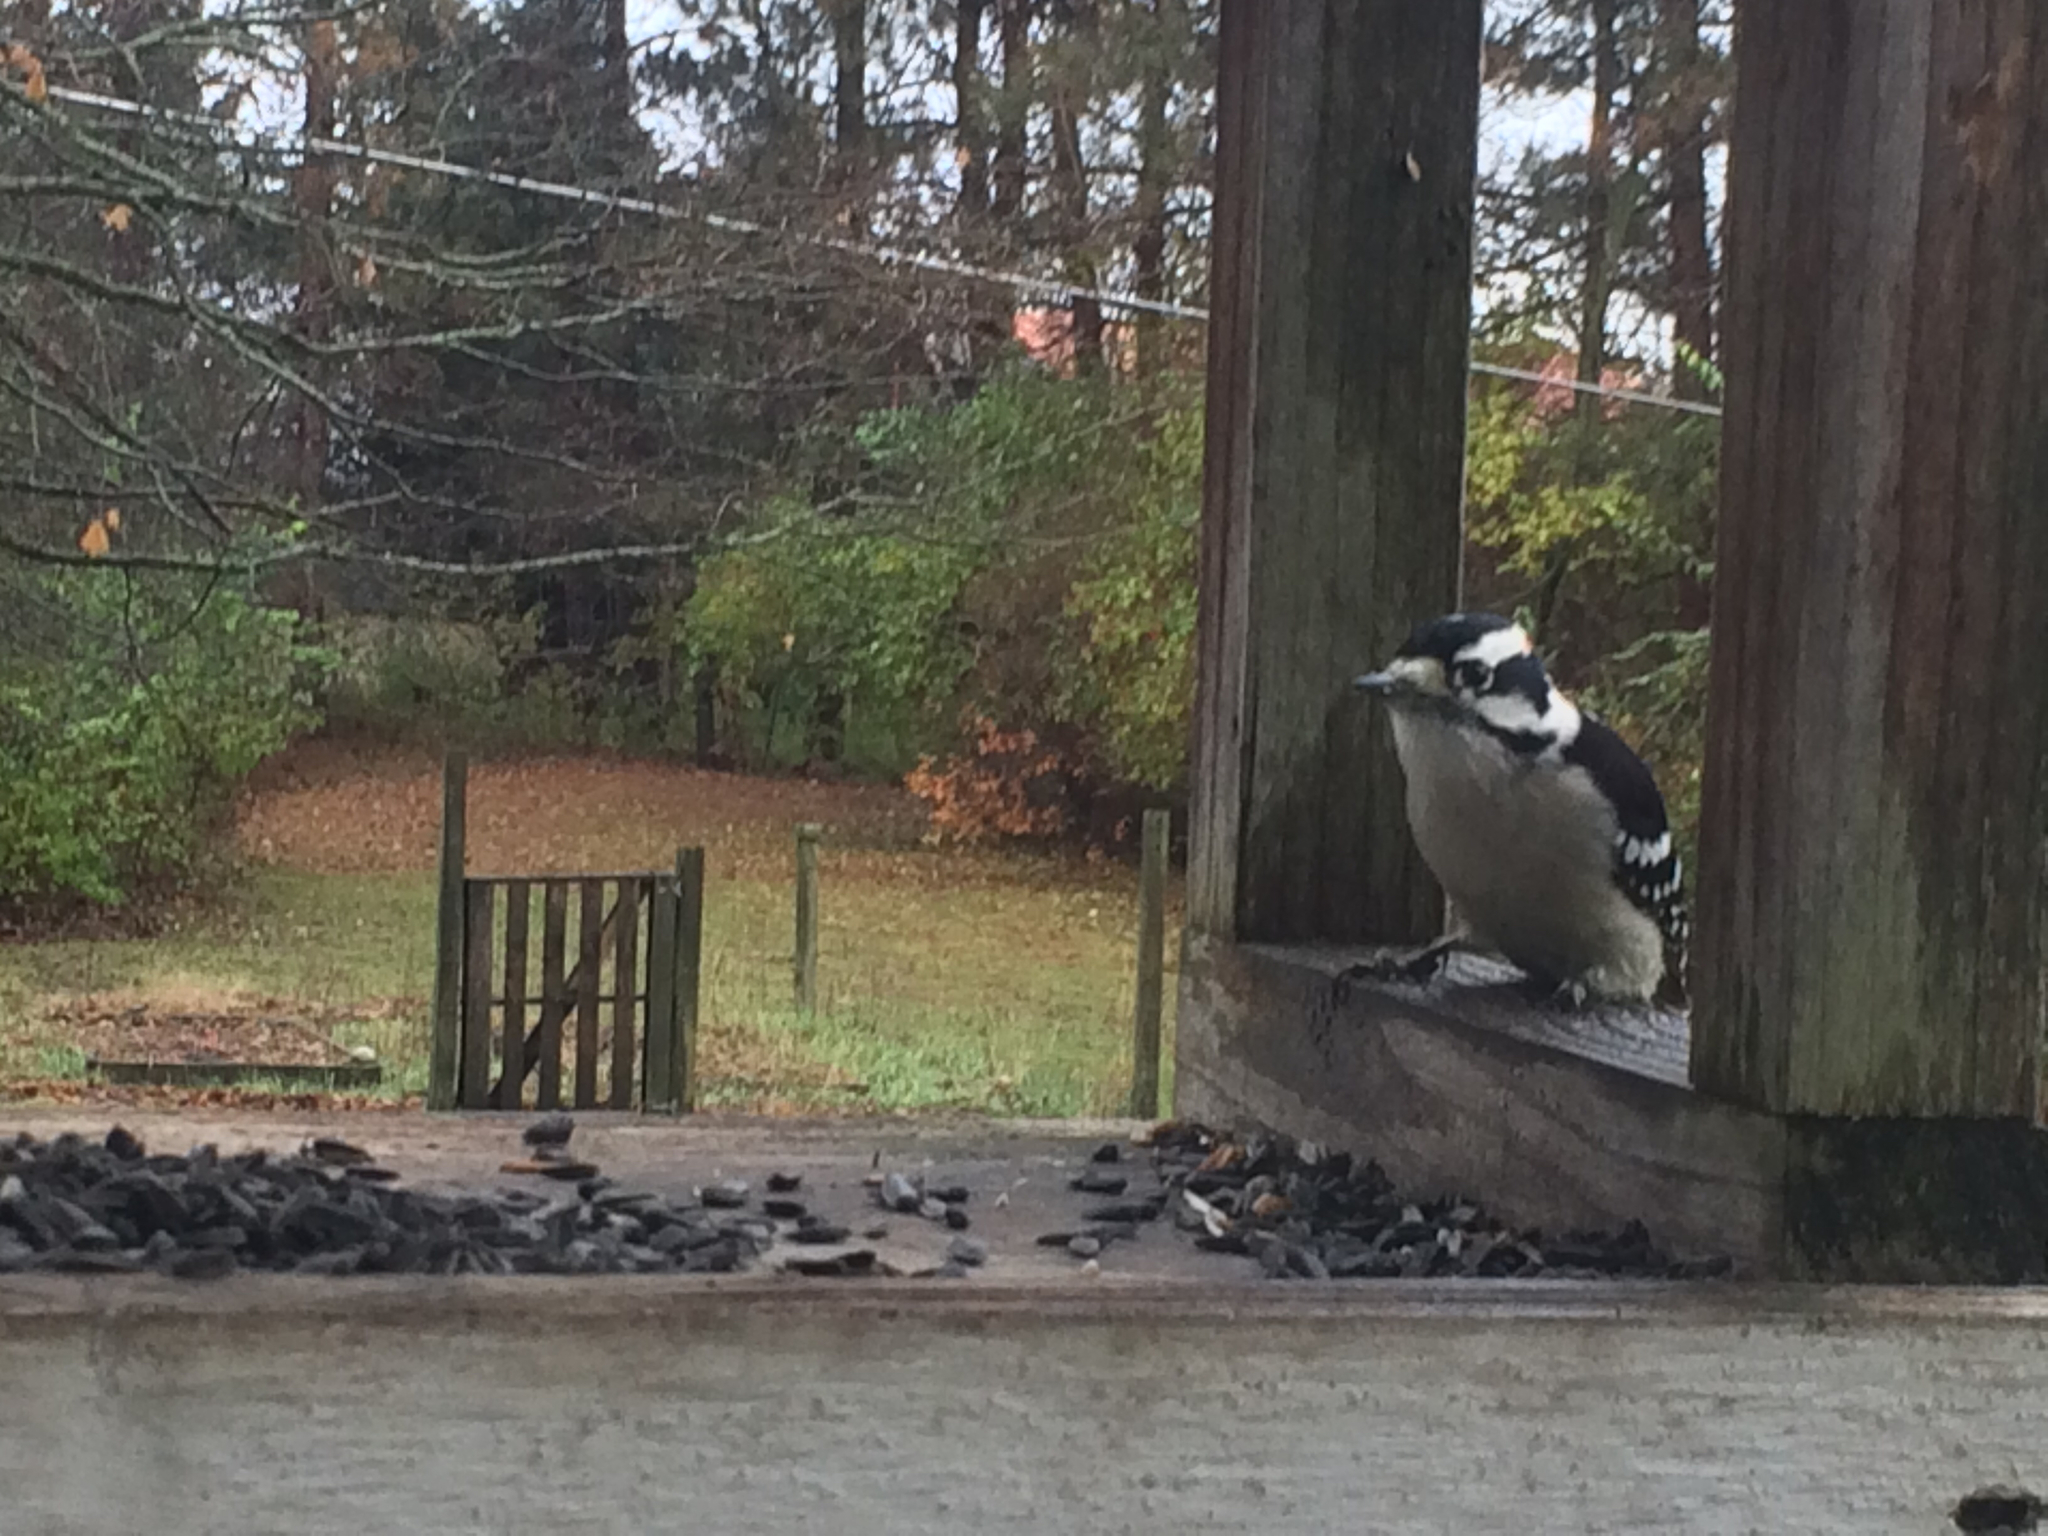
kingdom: Animalia
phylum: Chordata
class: Aves
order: Piciformes
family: Picidae
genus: Dryobates
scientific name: Dryobates pubescens
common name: Downy woodpecker
